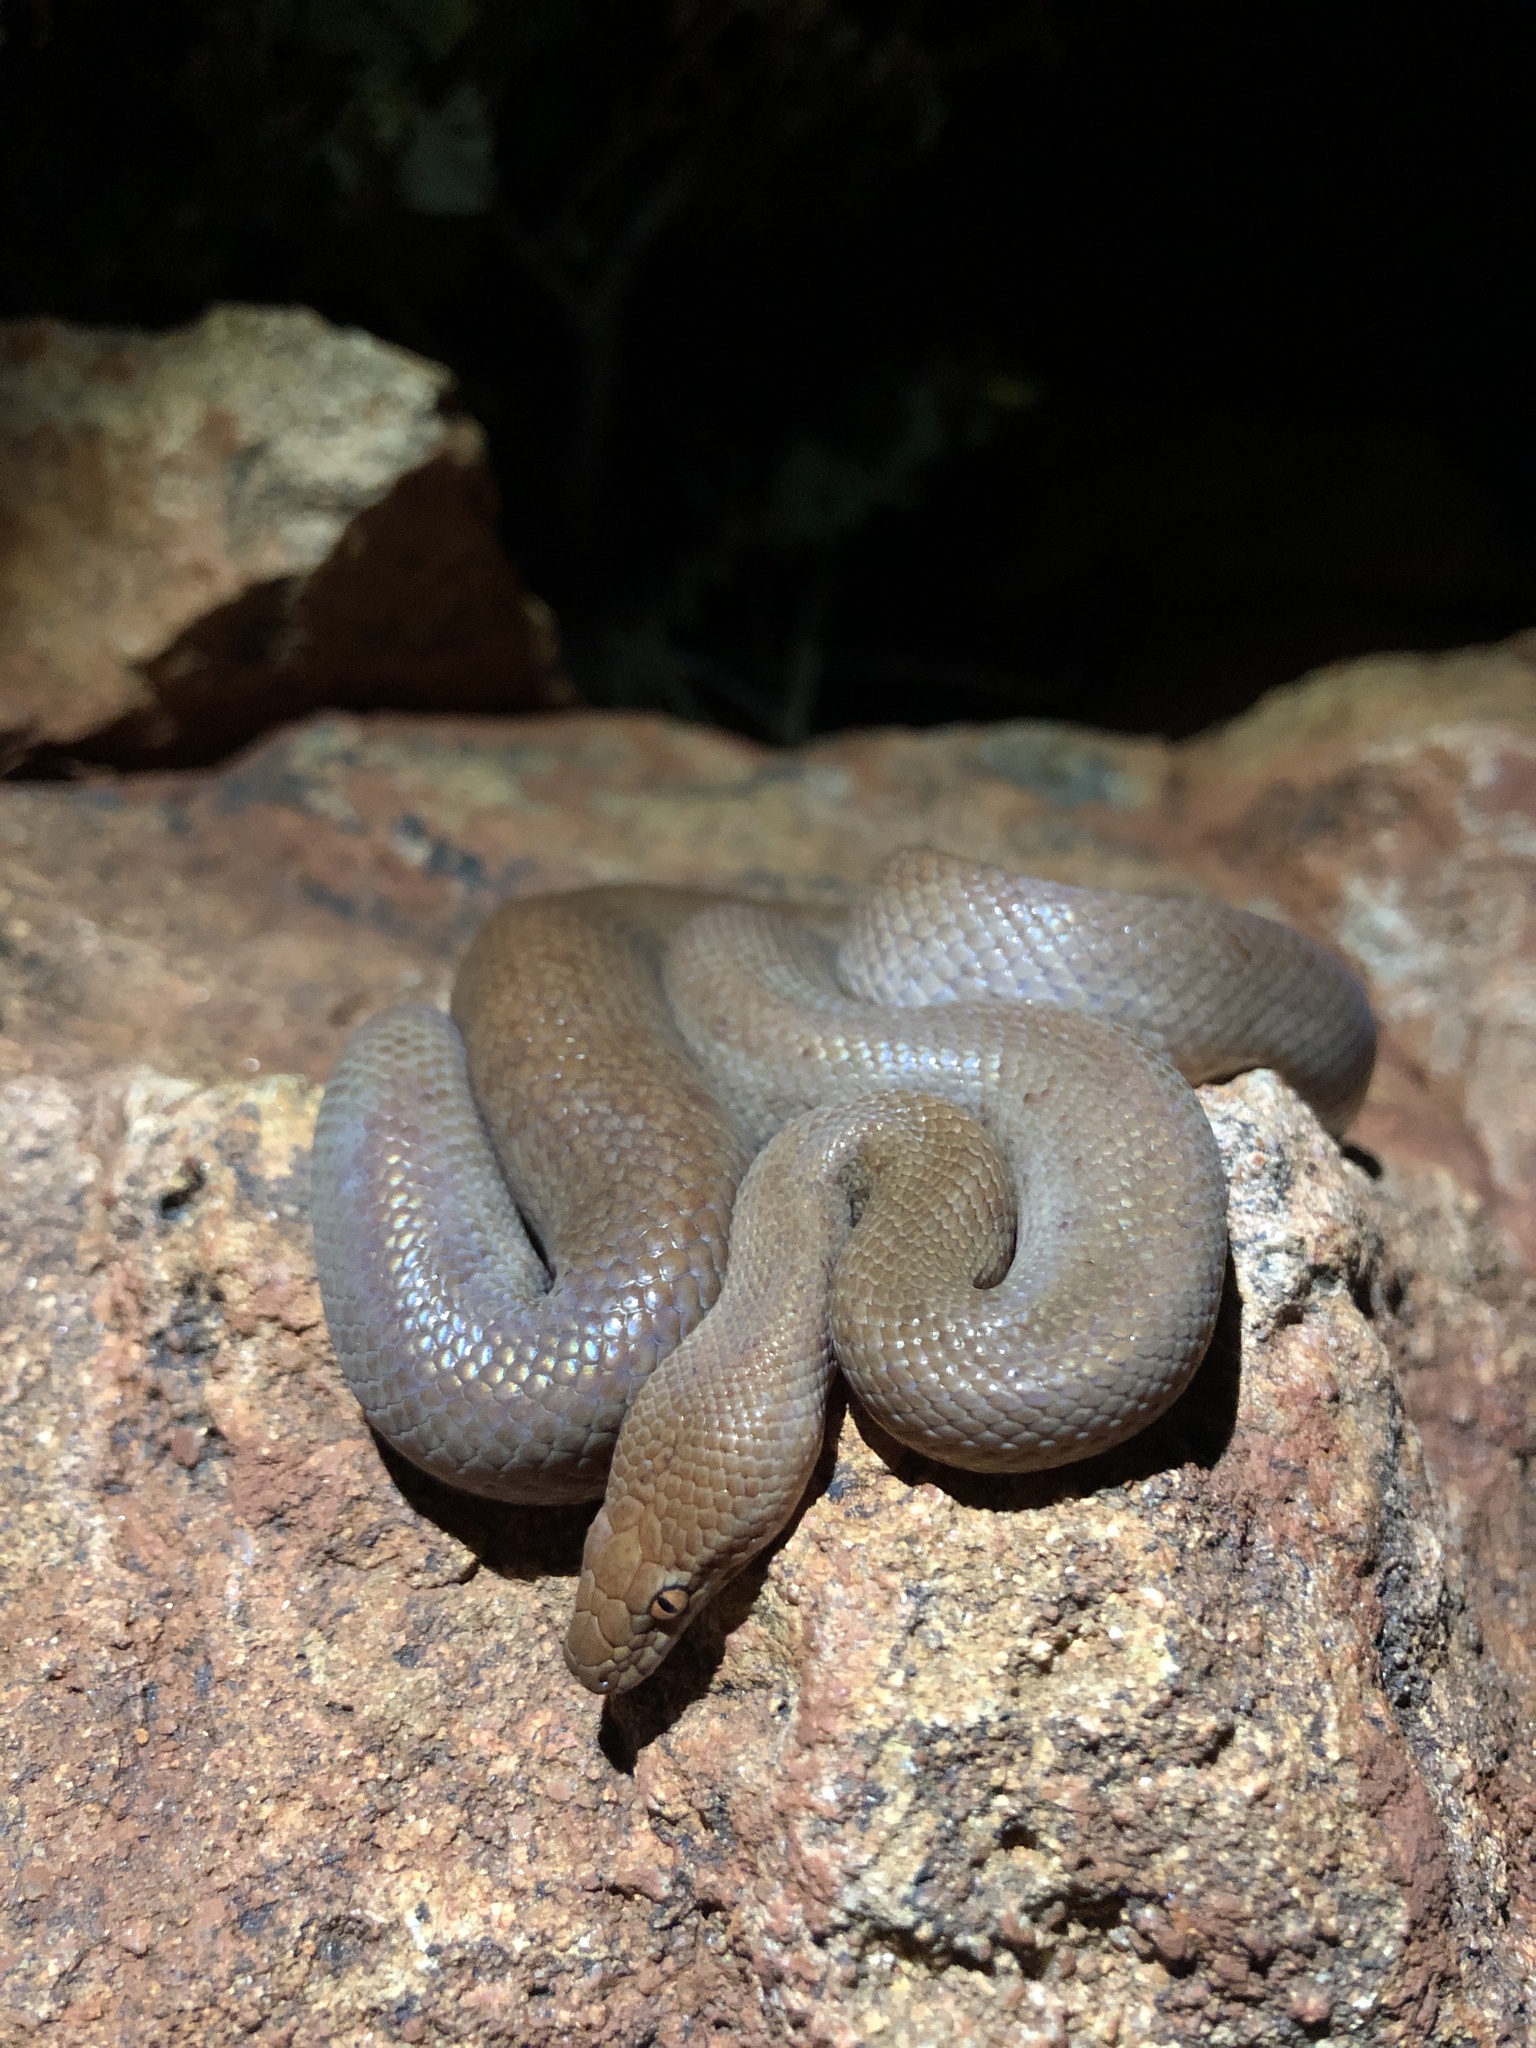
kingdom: Animalia
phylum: Chordata
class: Squamata
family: Pythonidae
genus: Antaresia
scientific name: Antaresia perthensis
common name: Pygmy python
